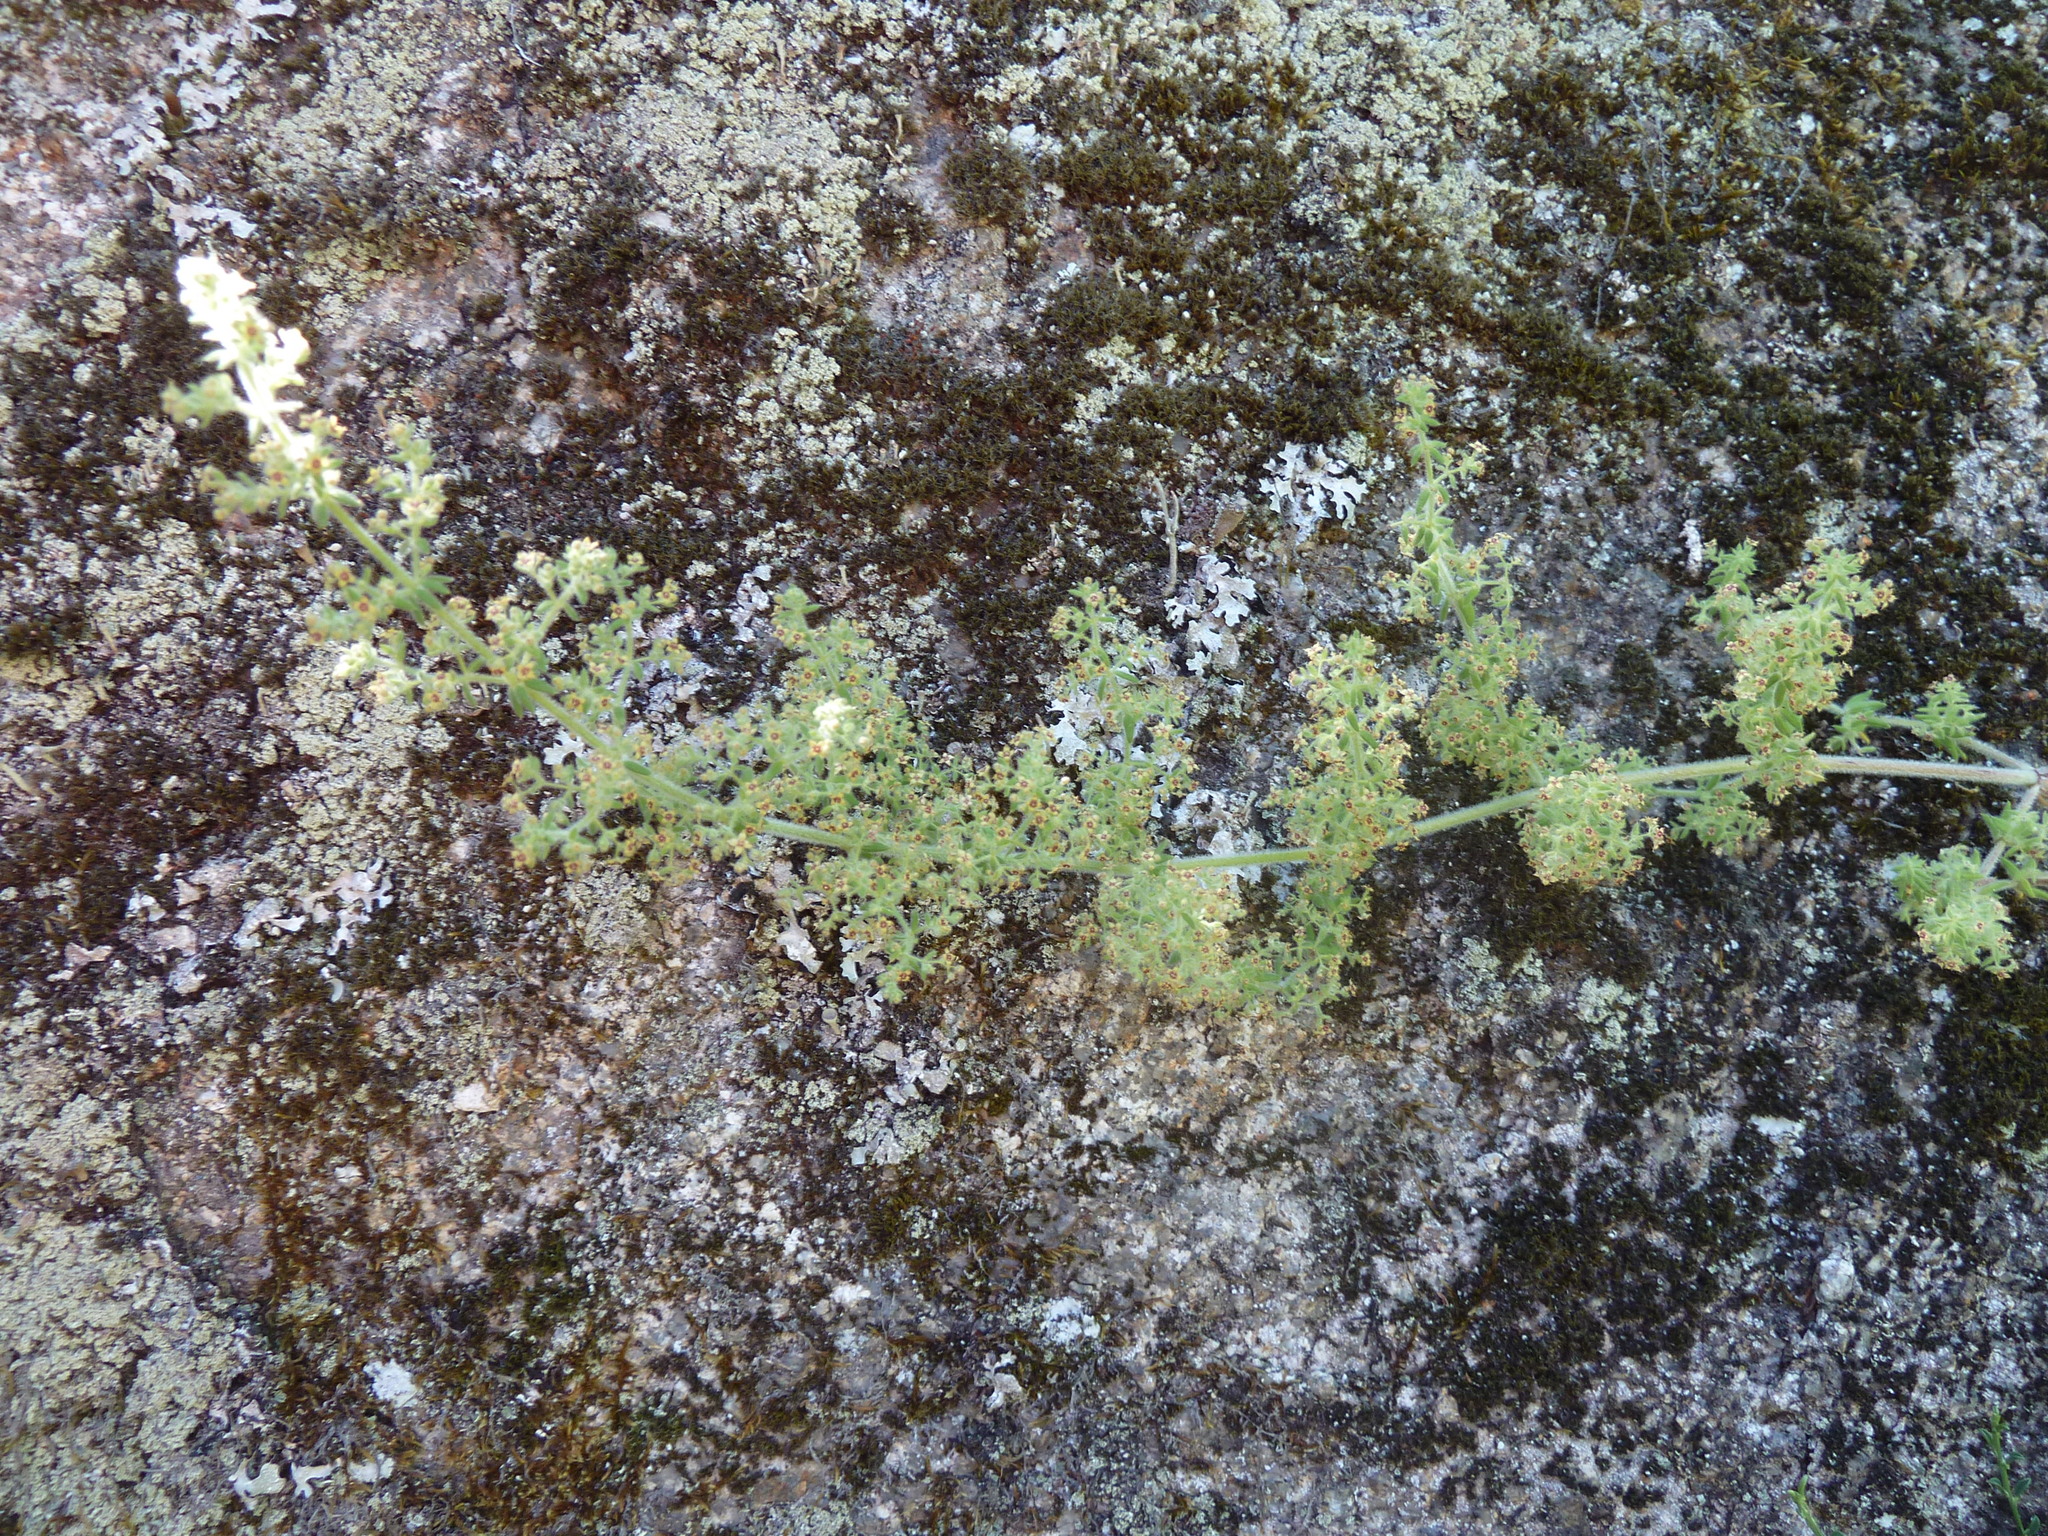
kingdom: Plantae
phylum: Tracheophyta
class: Magnoliopsida
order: Gentianales
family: Rubiaceae
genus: Galium
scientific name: Galium maritimum
